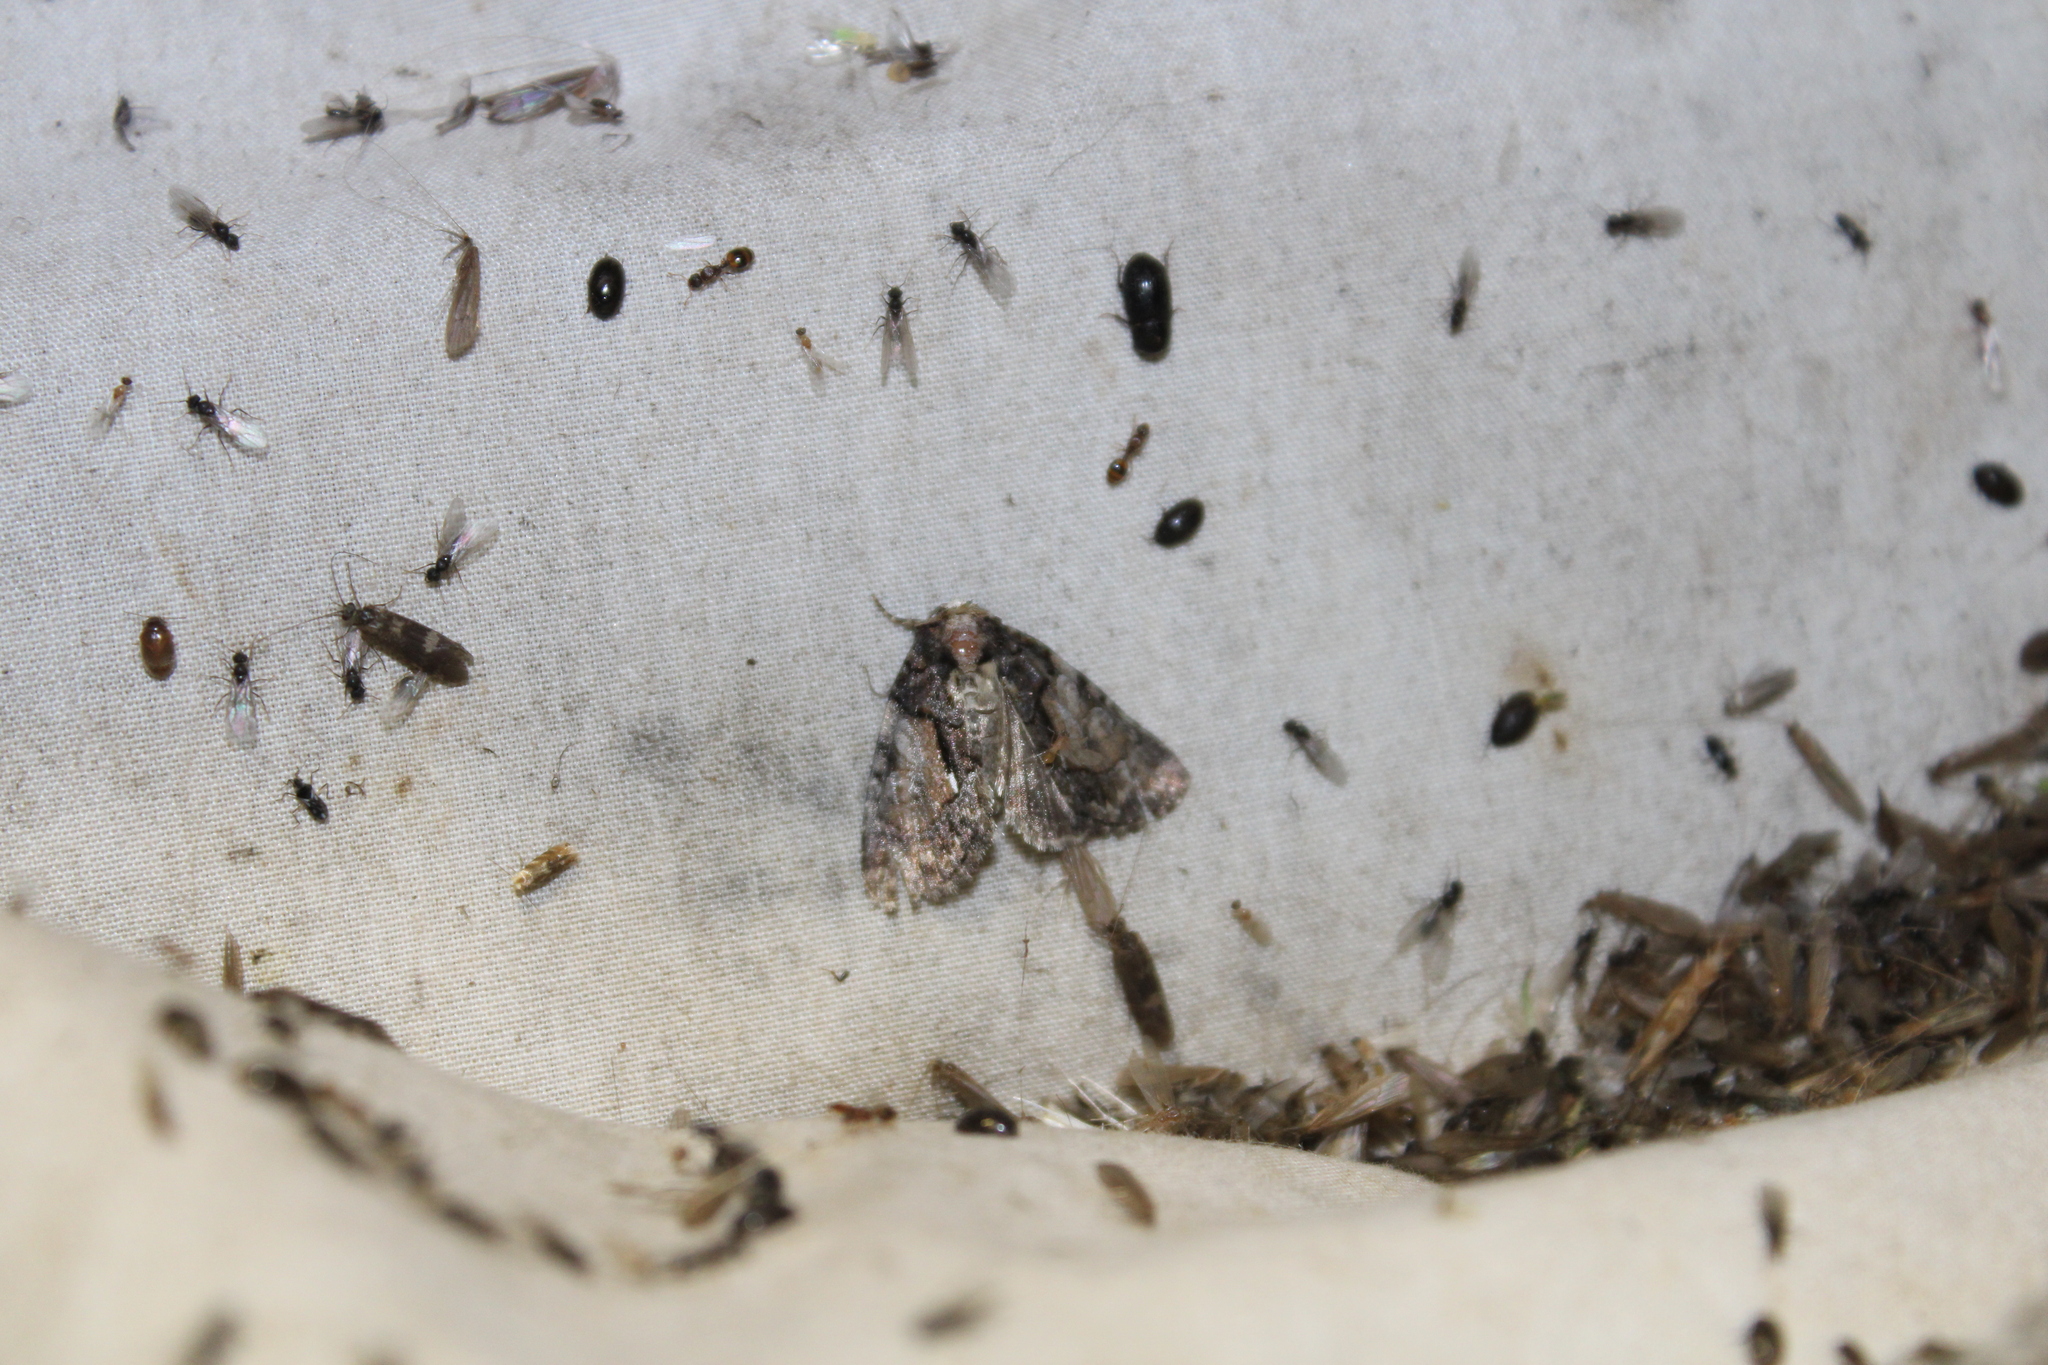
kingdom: Animalia
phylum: Arthropoda
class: Insecta
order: Lepidoptera
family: Noctuidae
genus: Chytonix
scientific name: Chytonix palliatricula
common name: Cloaked marvel
